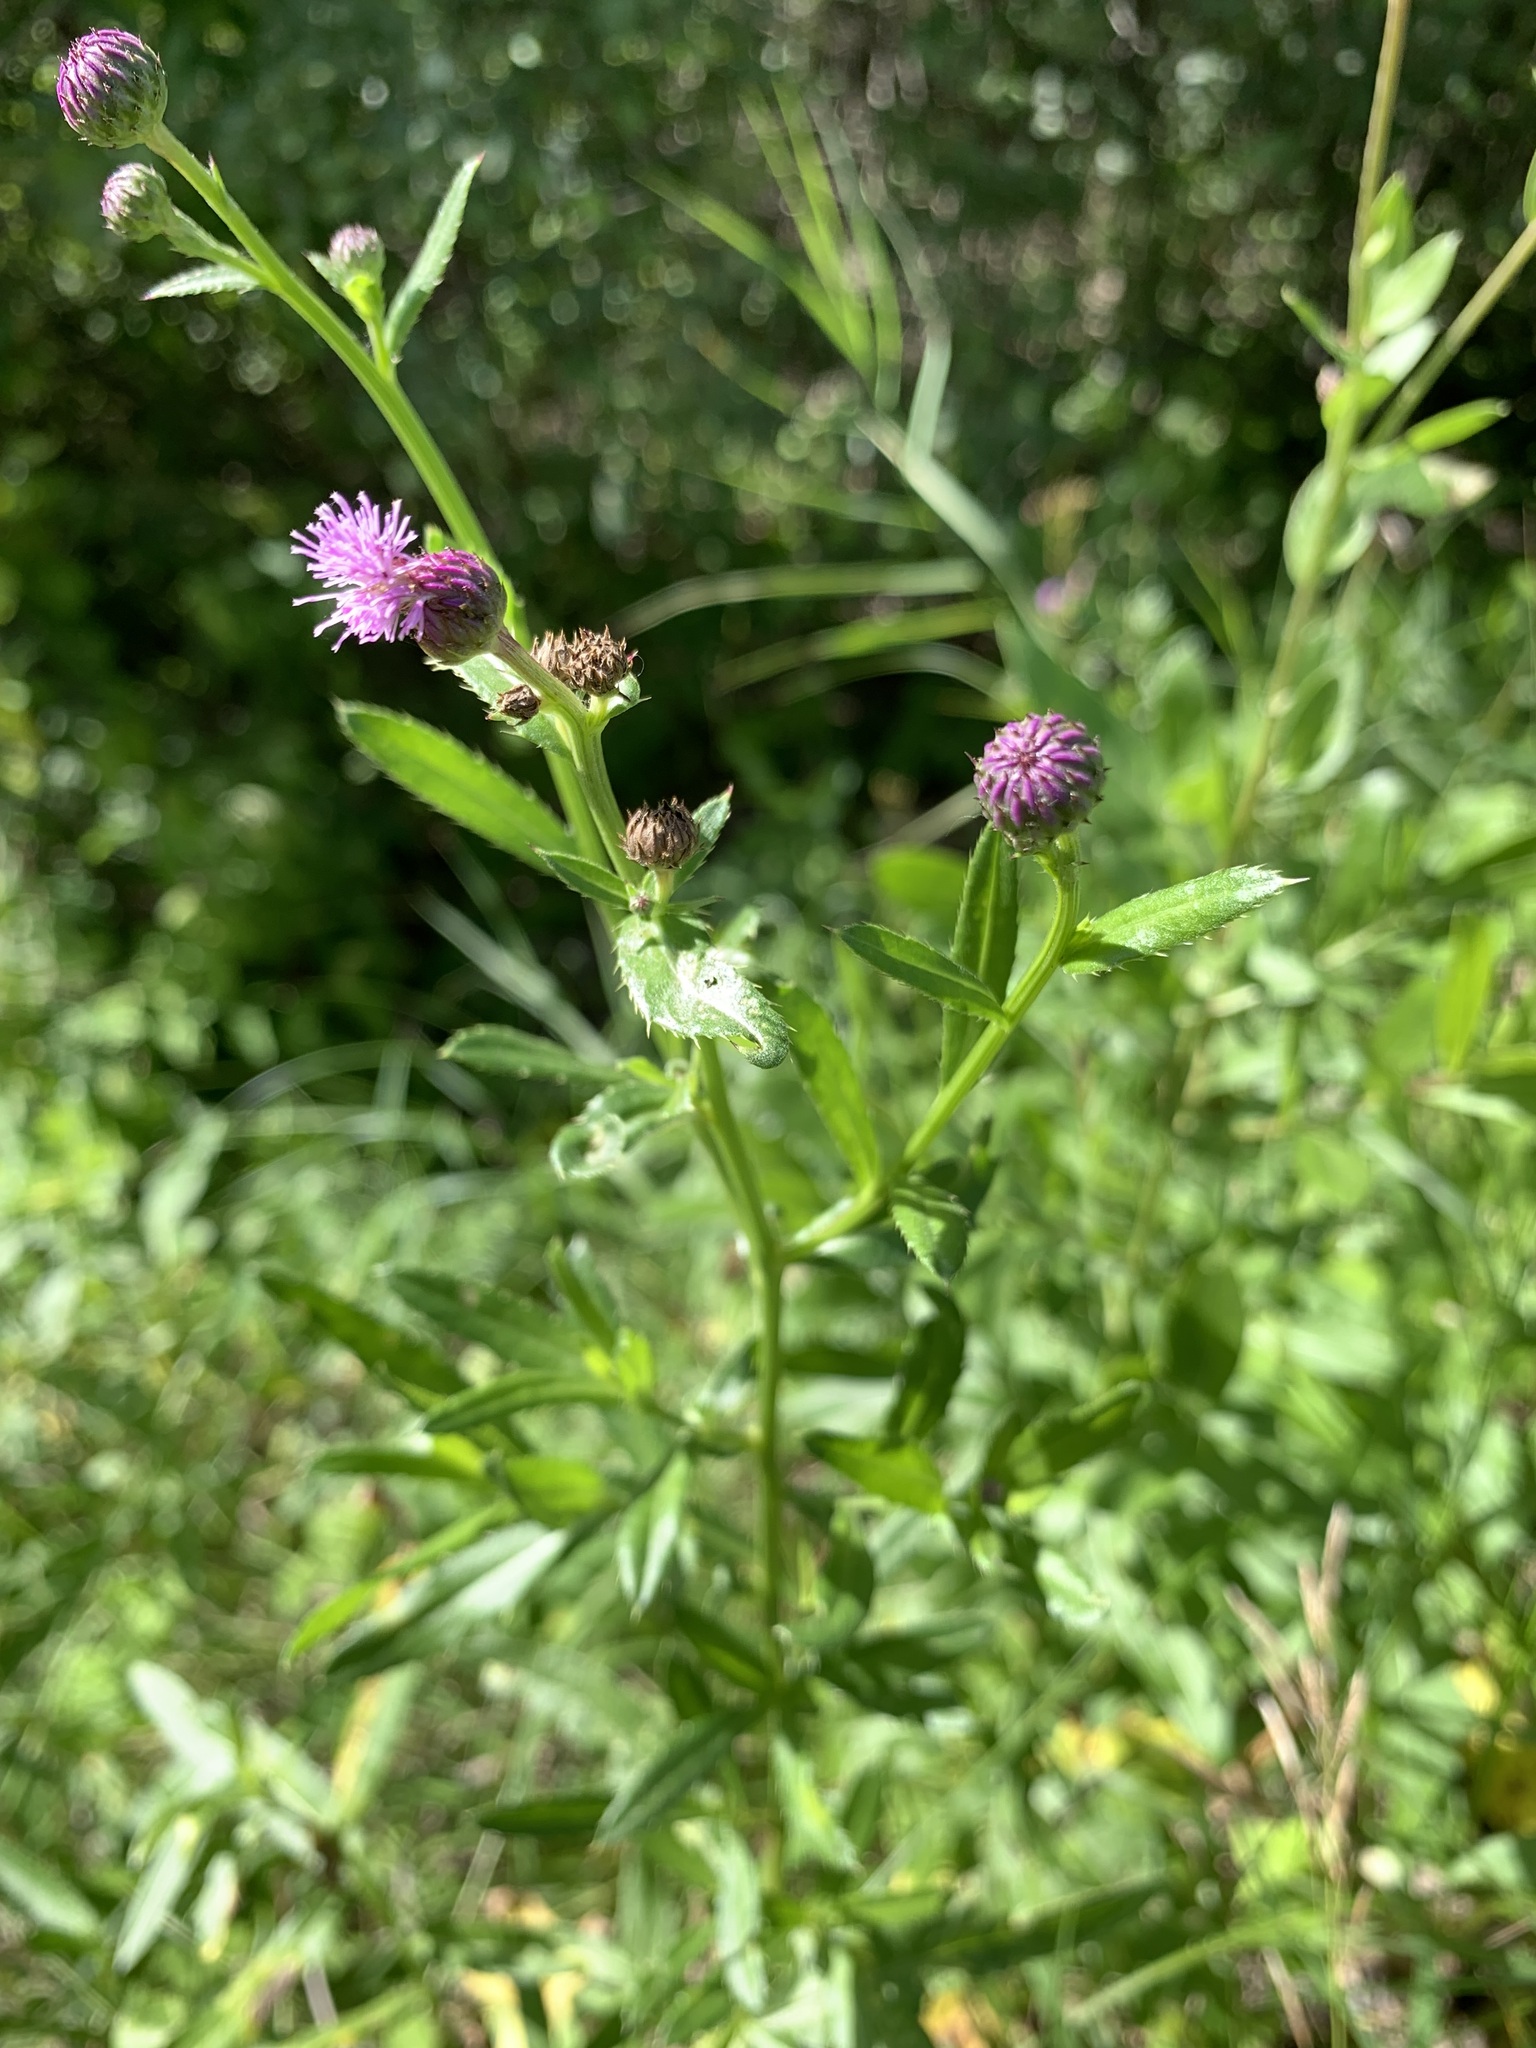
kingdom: Plantae
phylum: Tracheophyta
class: Magnoliopsida
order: Asterales
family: Asteraceae
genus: Cirsium
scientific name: Cirsium arvense
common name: Creeping thistle
